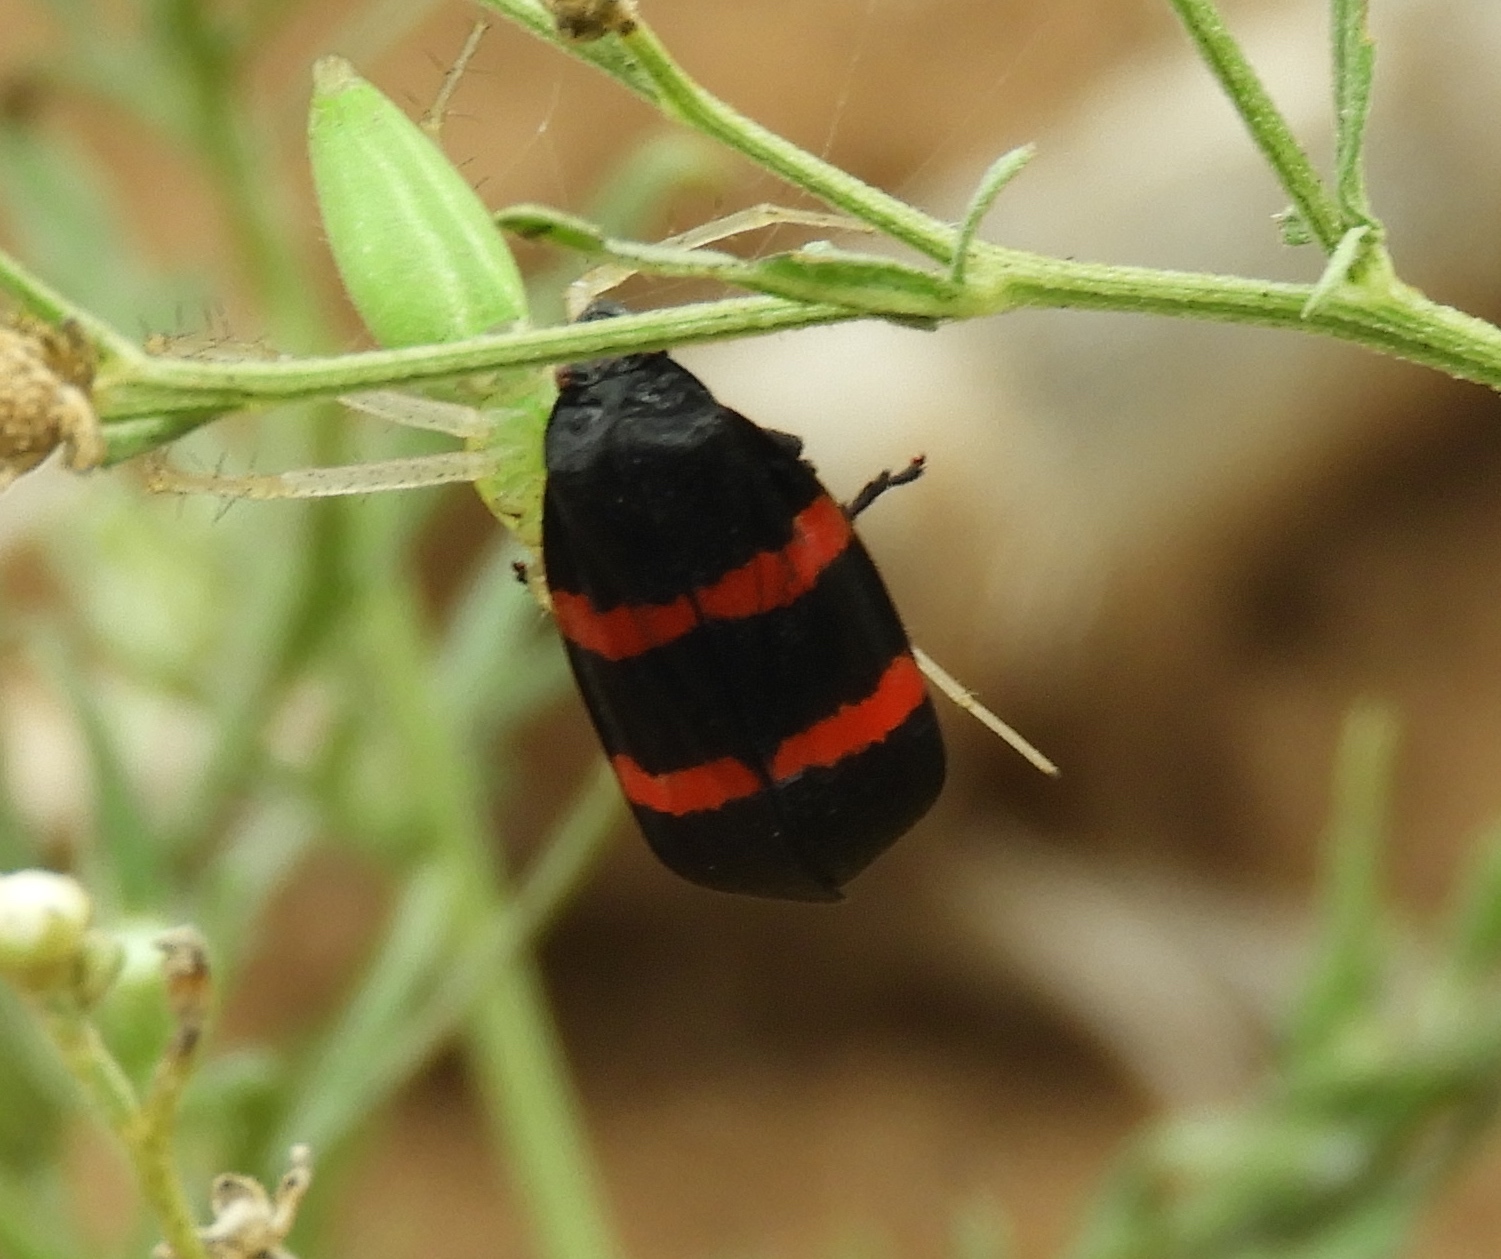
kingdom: Animalia
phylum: Arthropoda
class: Insecta
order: Hemiptera
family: Cercopidae
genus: Huaina
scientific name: Huaina inca
